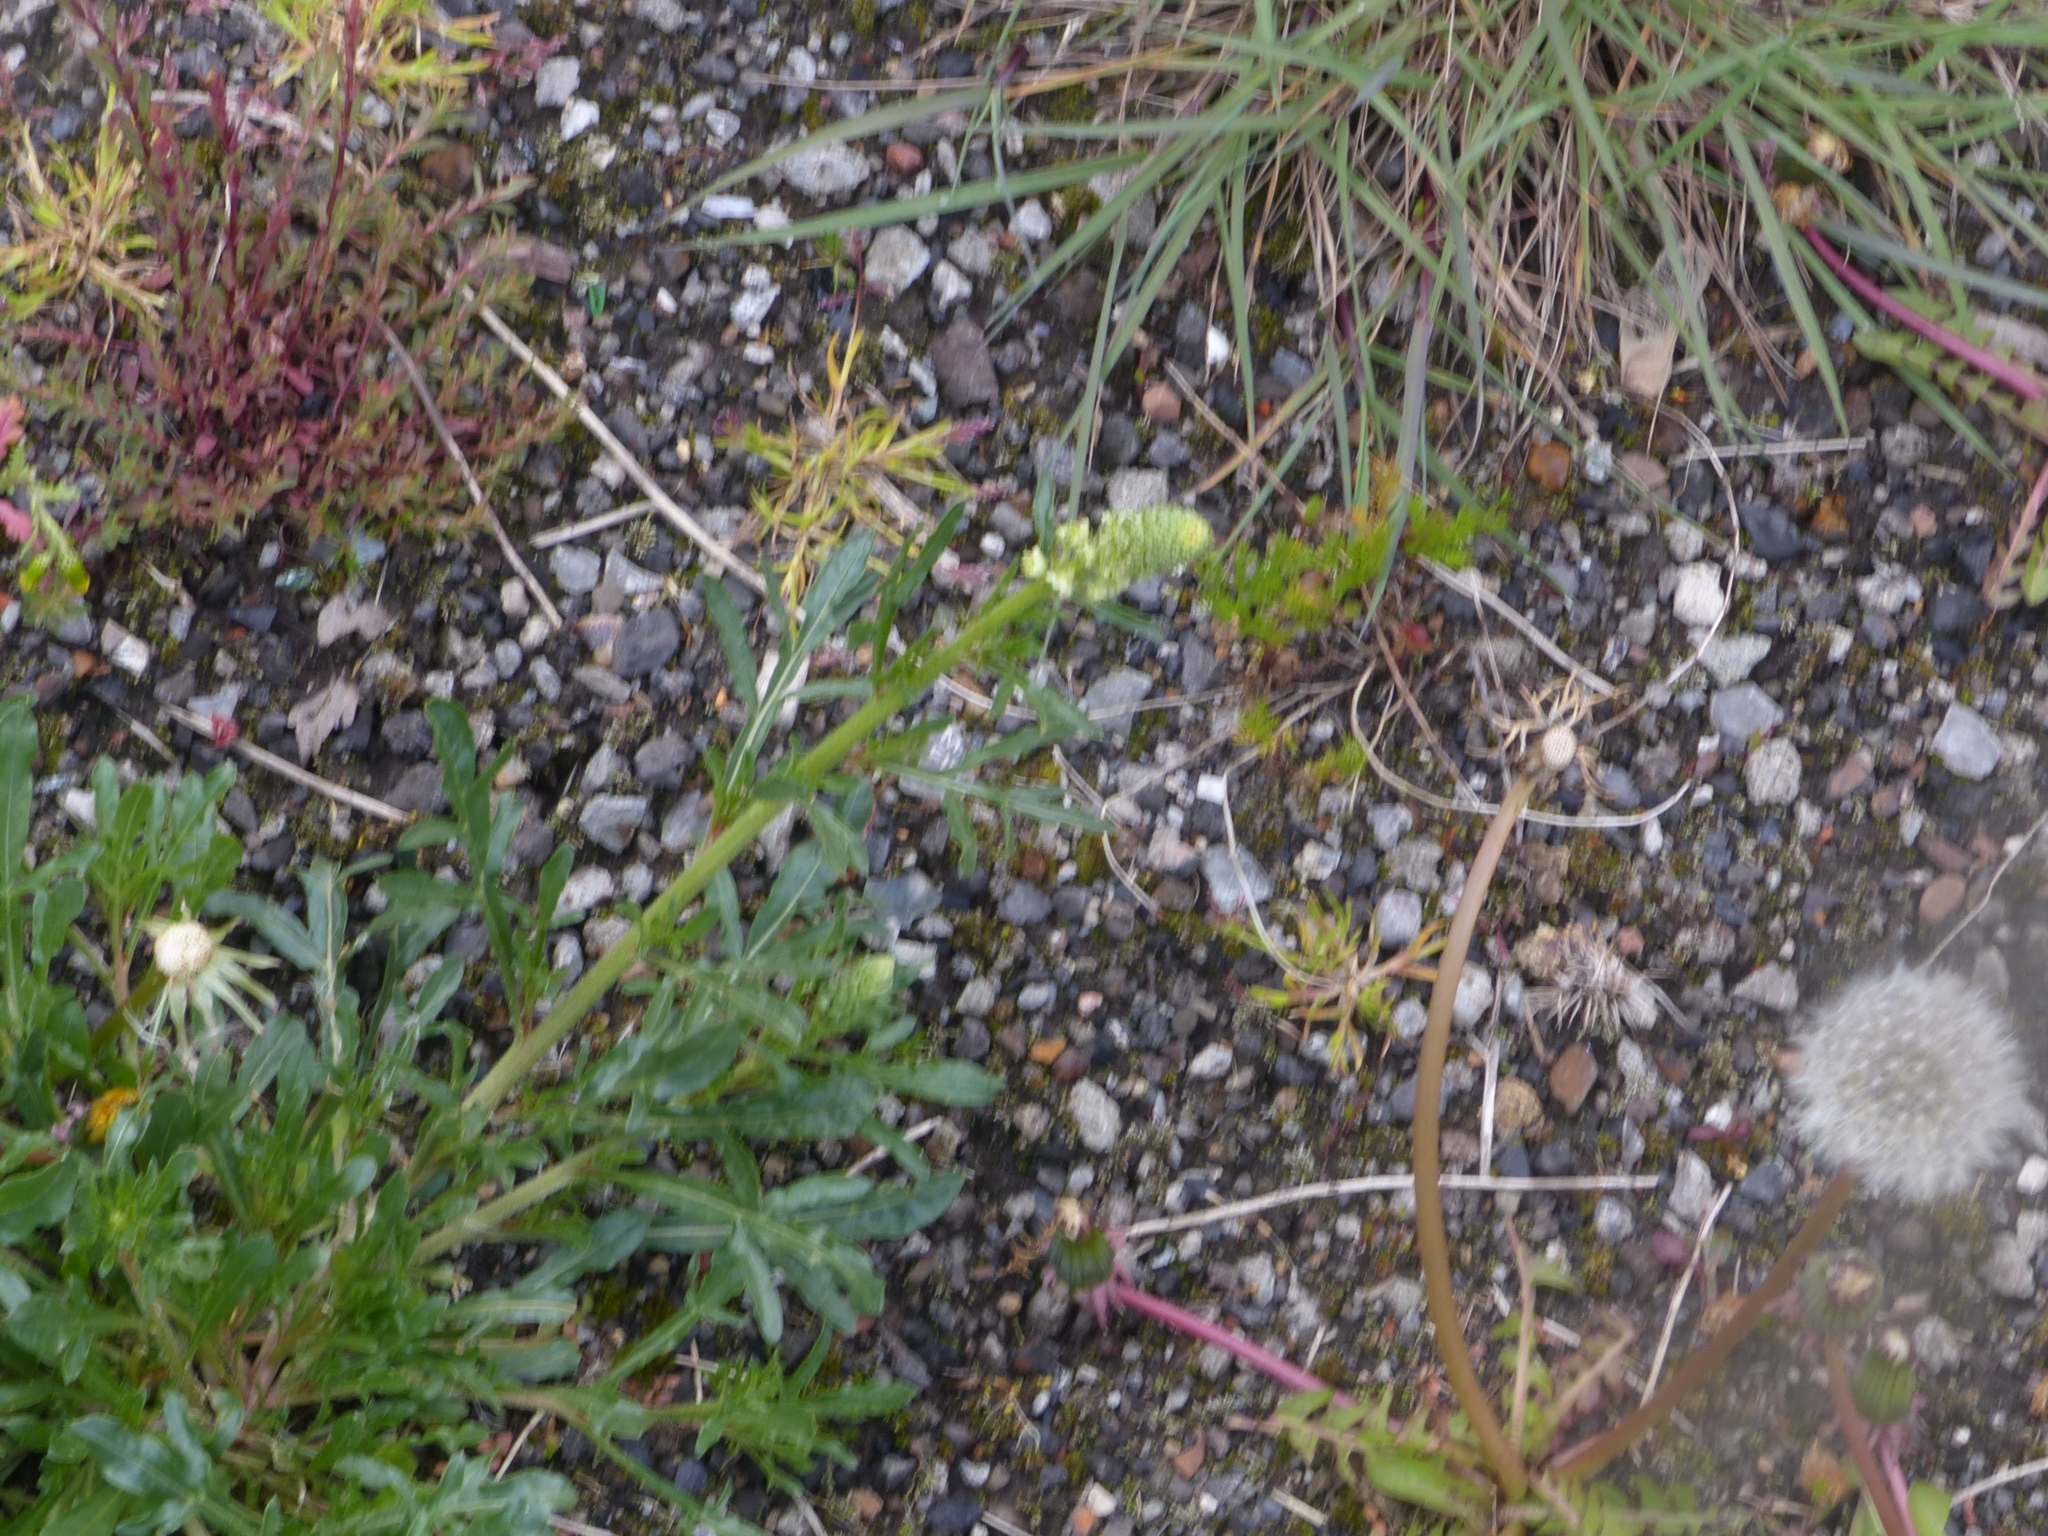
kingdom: Plantae
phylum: Tracheophyta
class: Magnoliopsida
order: Brassicales
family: Resedaceae
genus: Reseda
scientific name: Reseda lutea
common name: Wild mignonette
